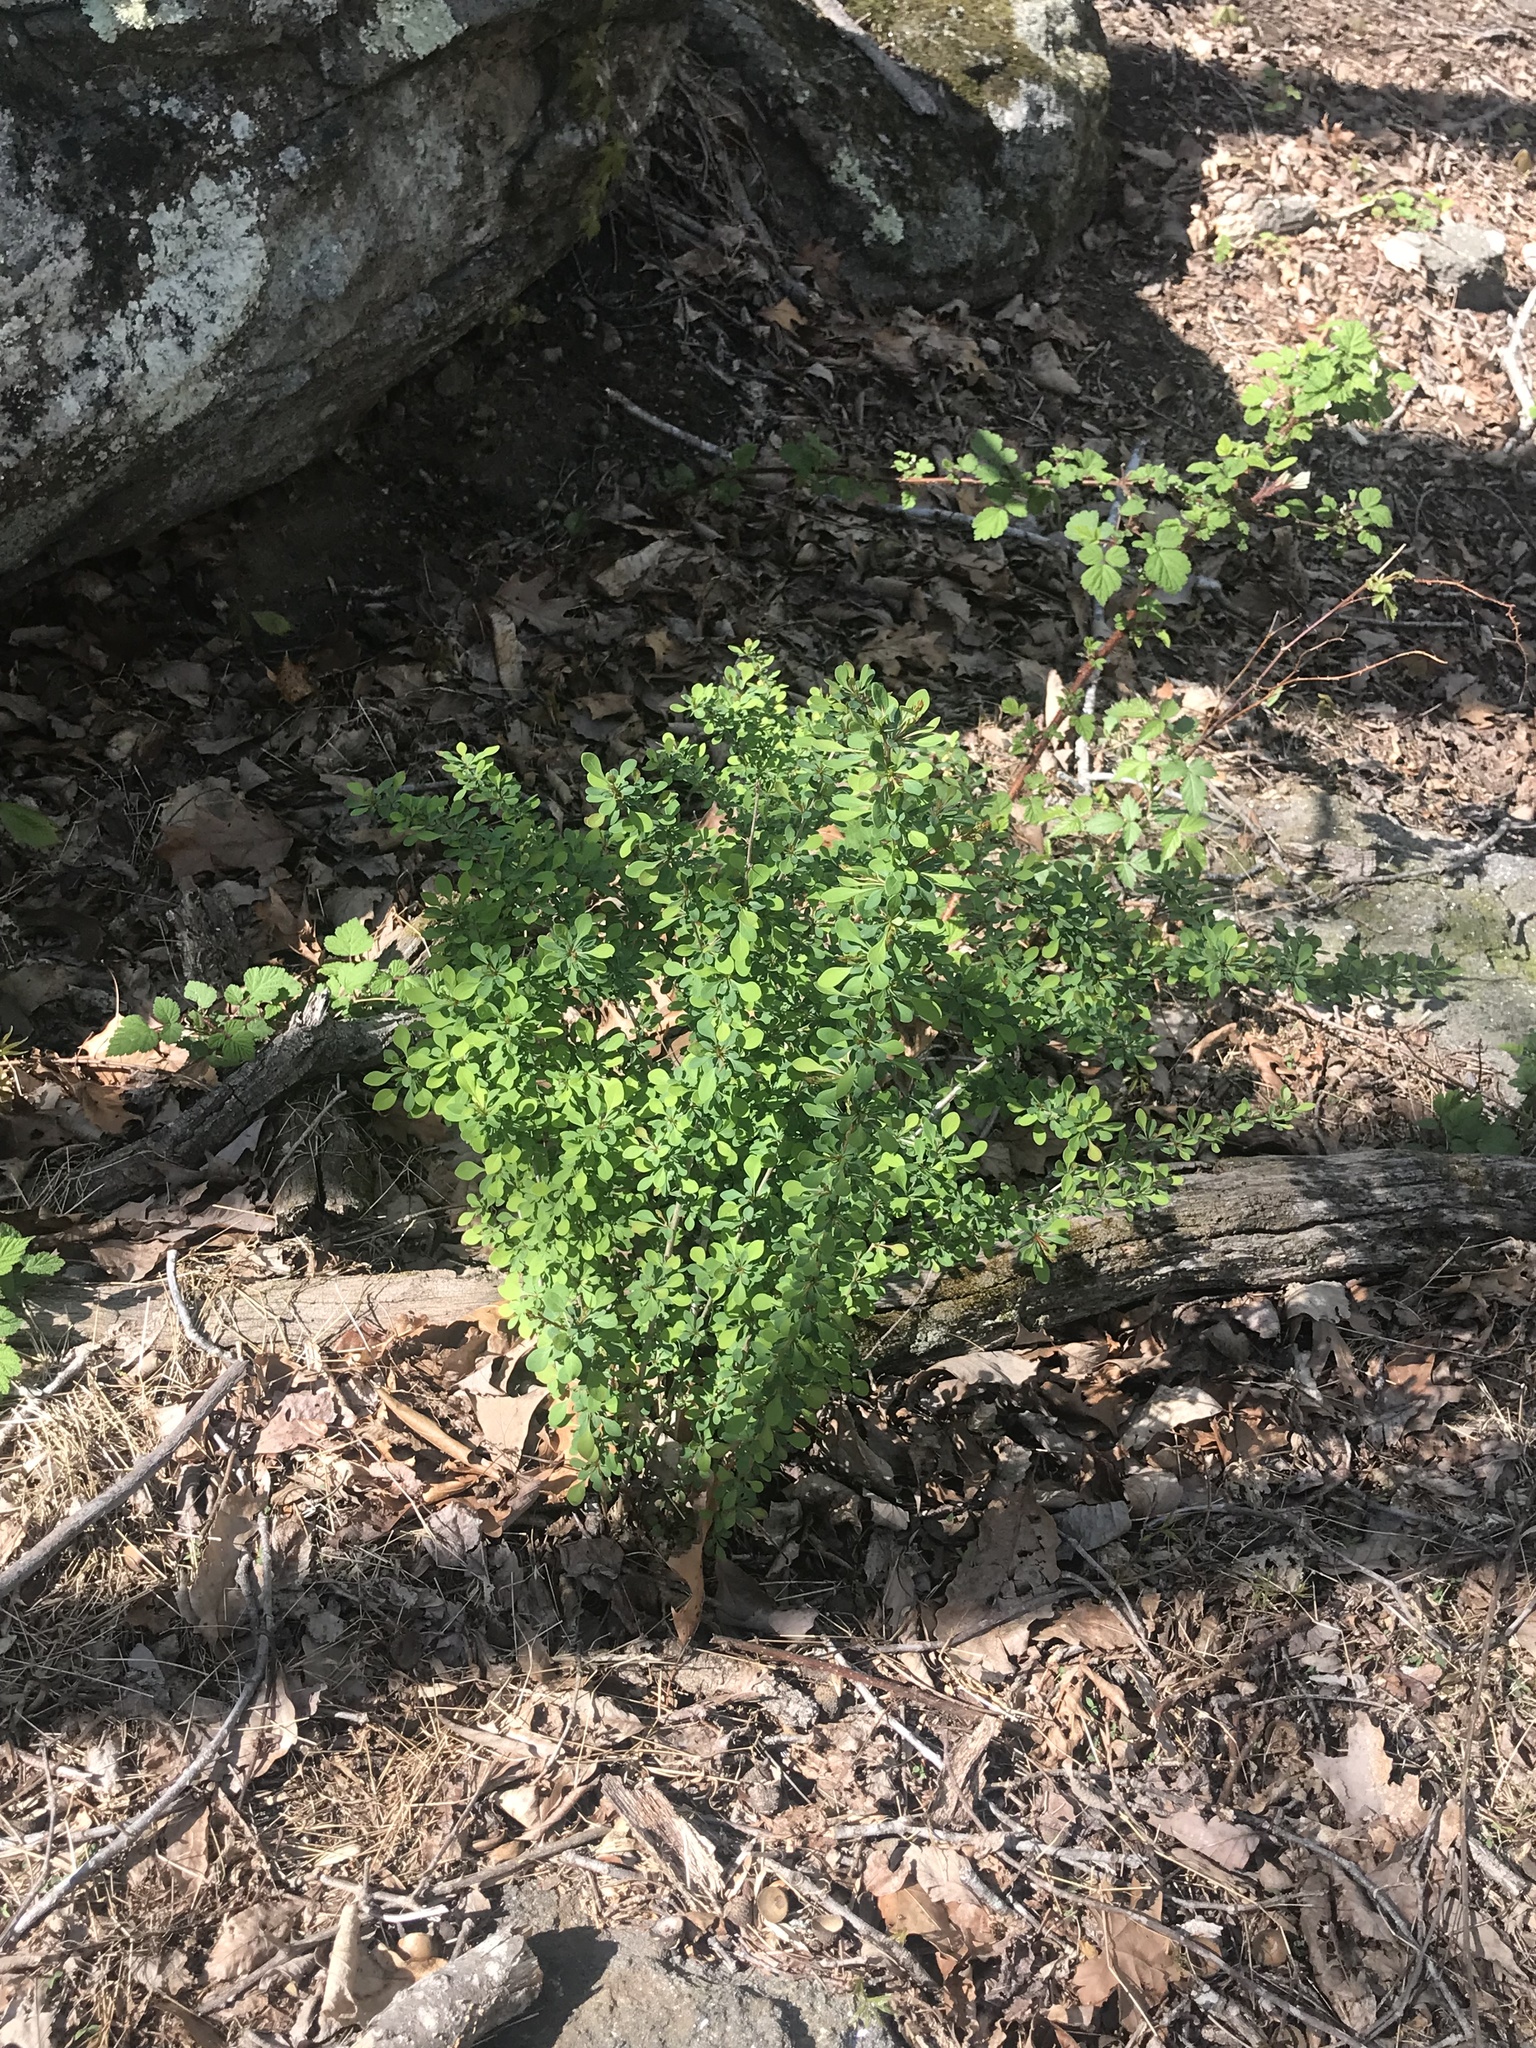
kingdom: Plantae
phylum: Tracheophyta
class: Magnoliopsida
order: Ranunculales
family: Berberidaceae
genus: Berberis
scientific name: Berberis thunbergii
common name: Japanese barberry
